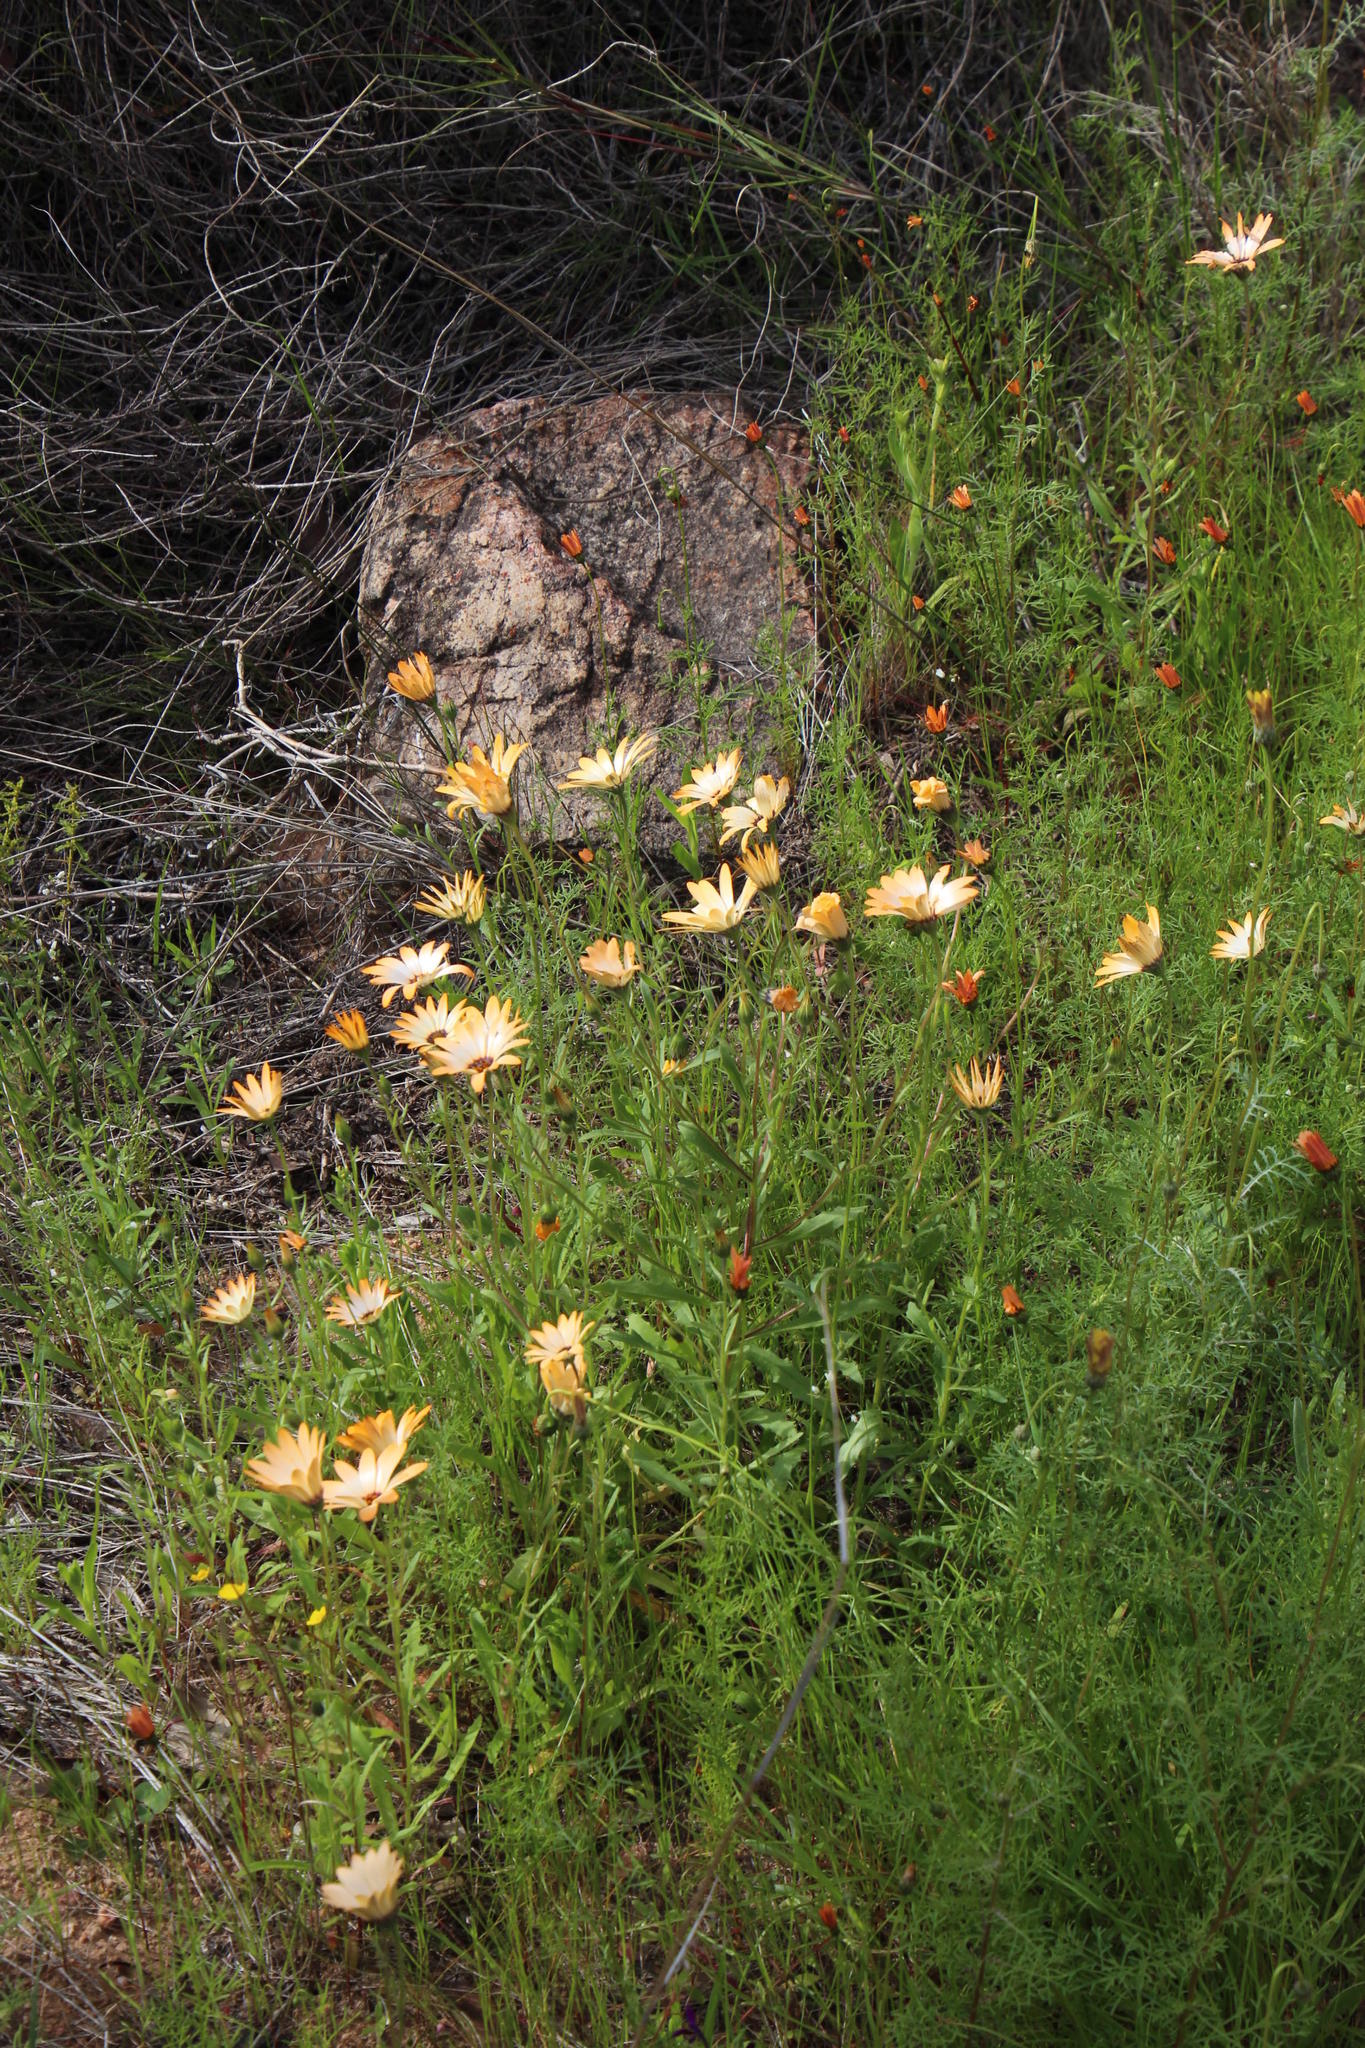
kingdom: Plantae
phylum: Tracheophyta
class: Magnoliopsida
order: Asterales
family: Asteraceae
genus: Dimorphotheca
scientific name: Dimorphotheca sinuata
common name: Glandular cape marigold
